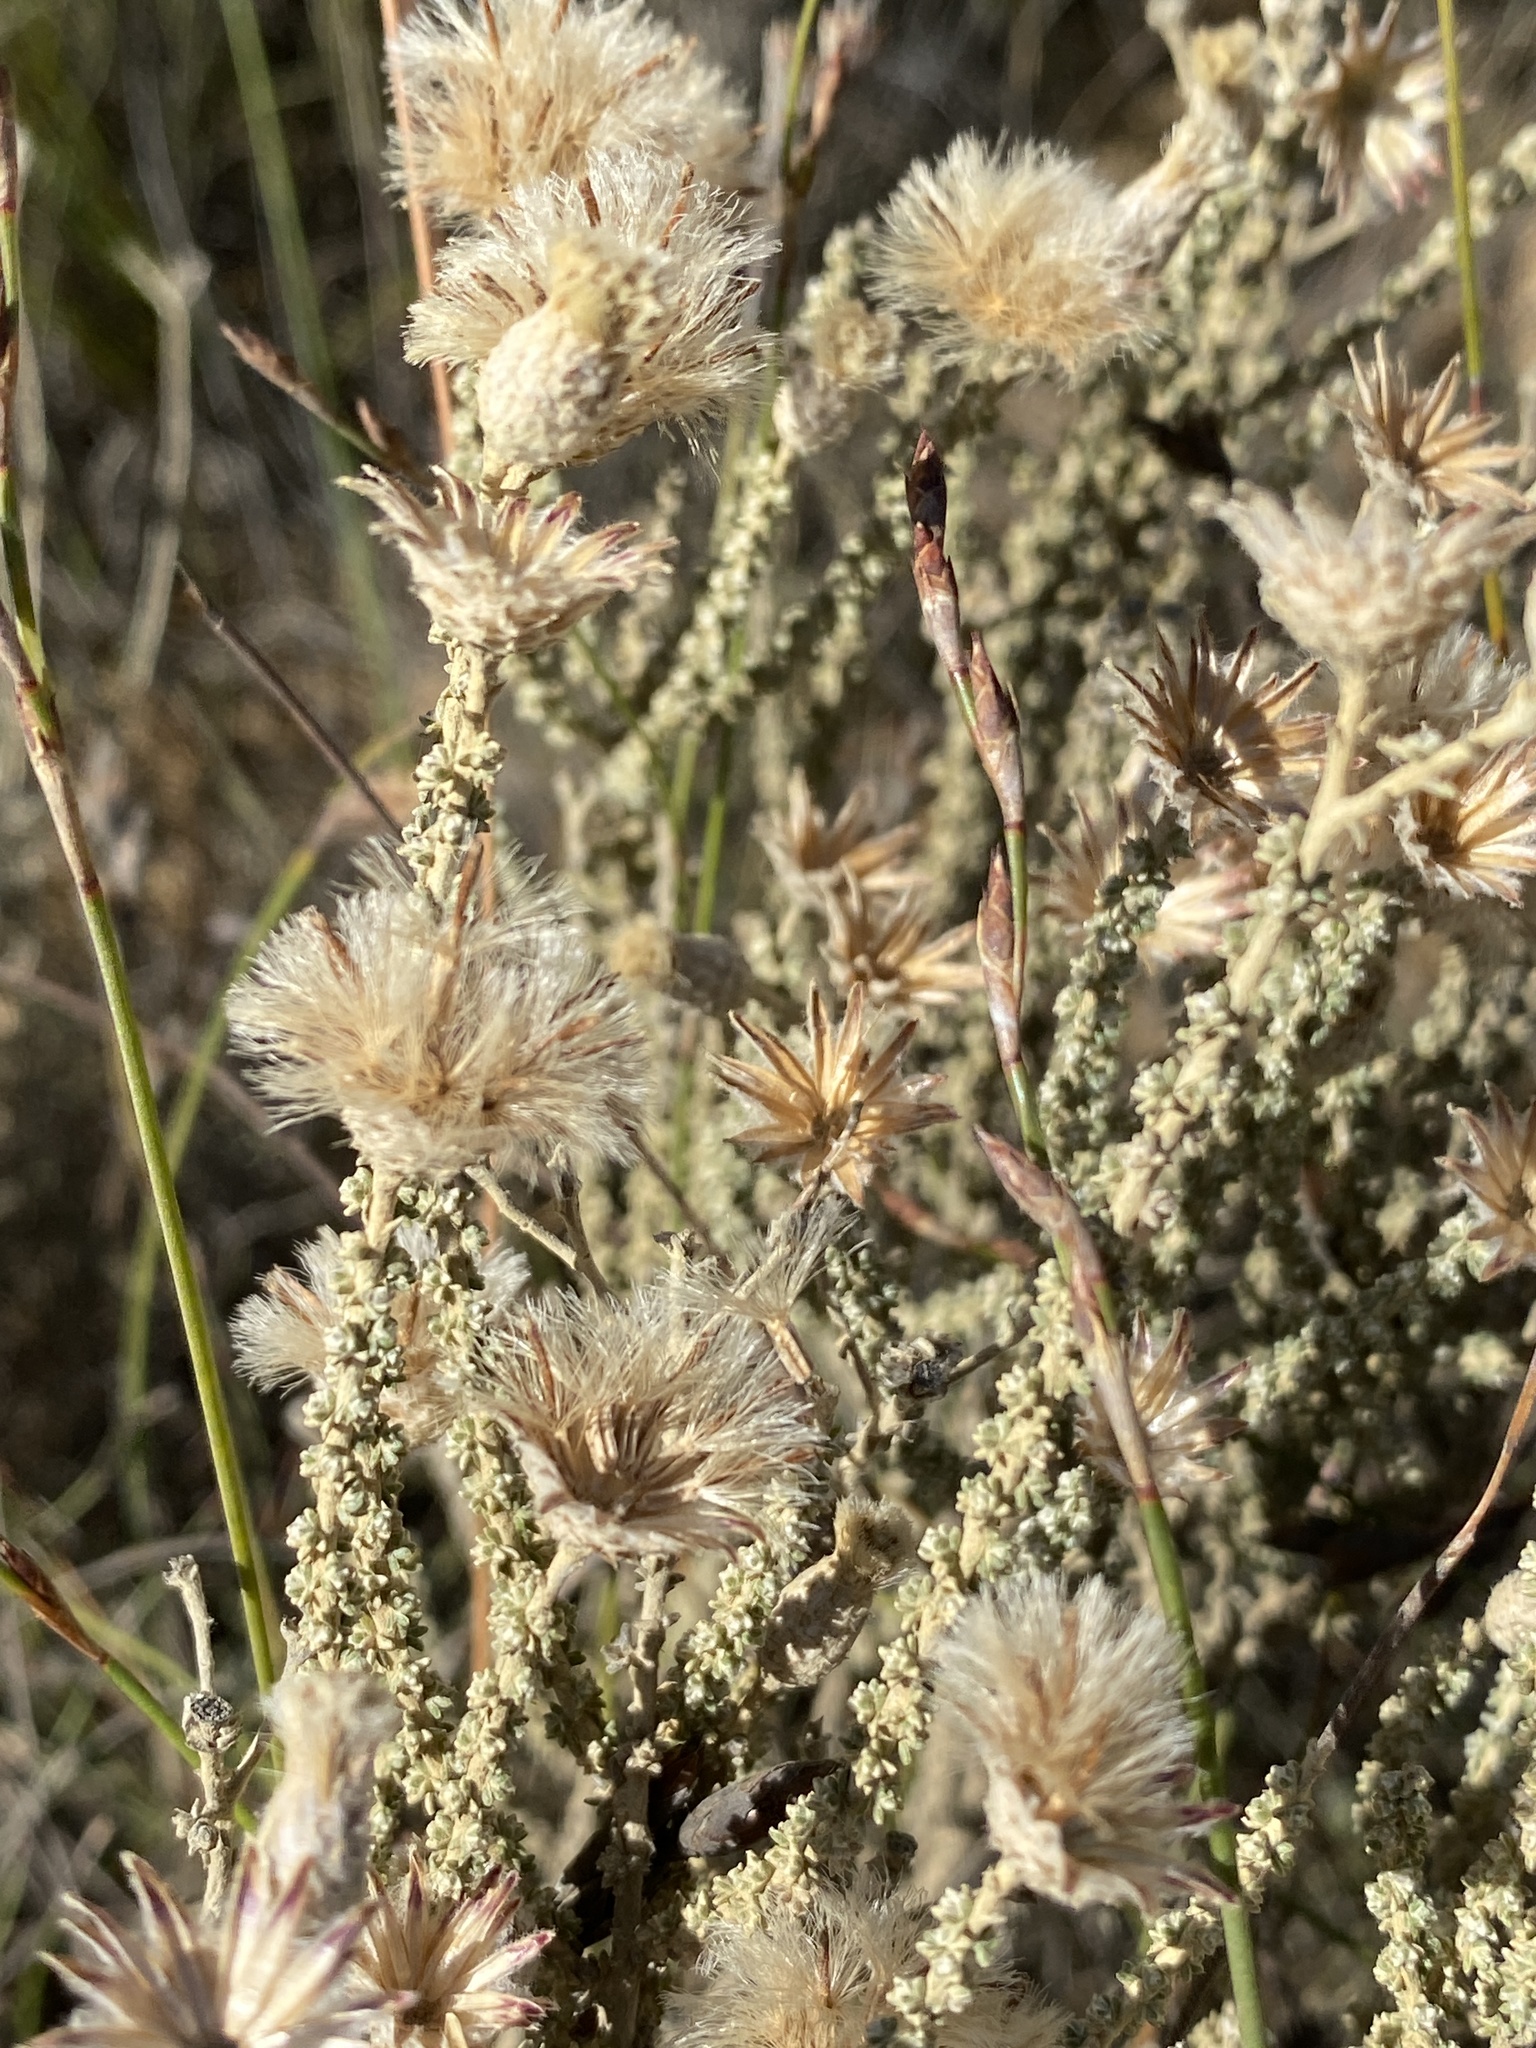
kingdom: Plantae
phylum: Tracheophyta
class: Magnoliopsida
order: Asterales
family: Asteraceae
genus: Lachnospermum
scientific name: Lachnospermum fasciculatum
